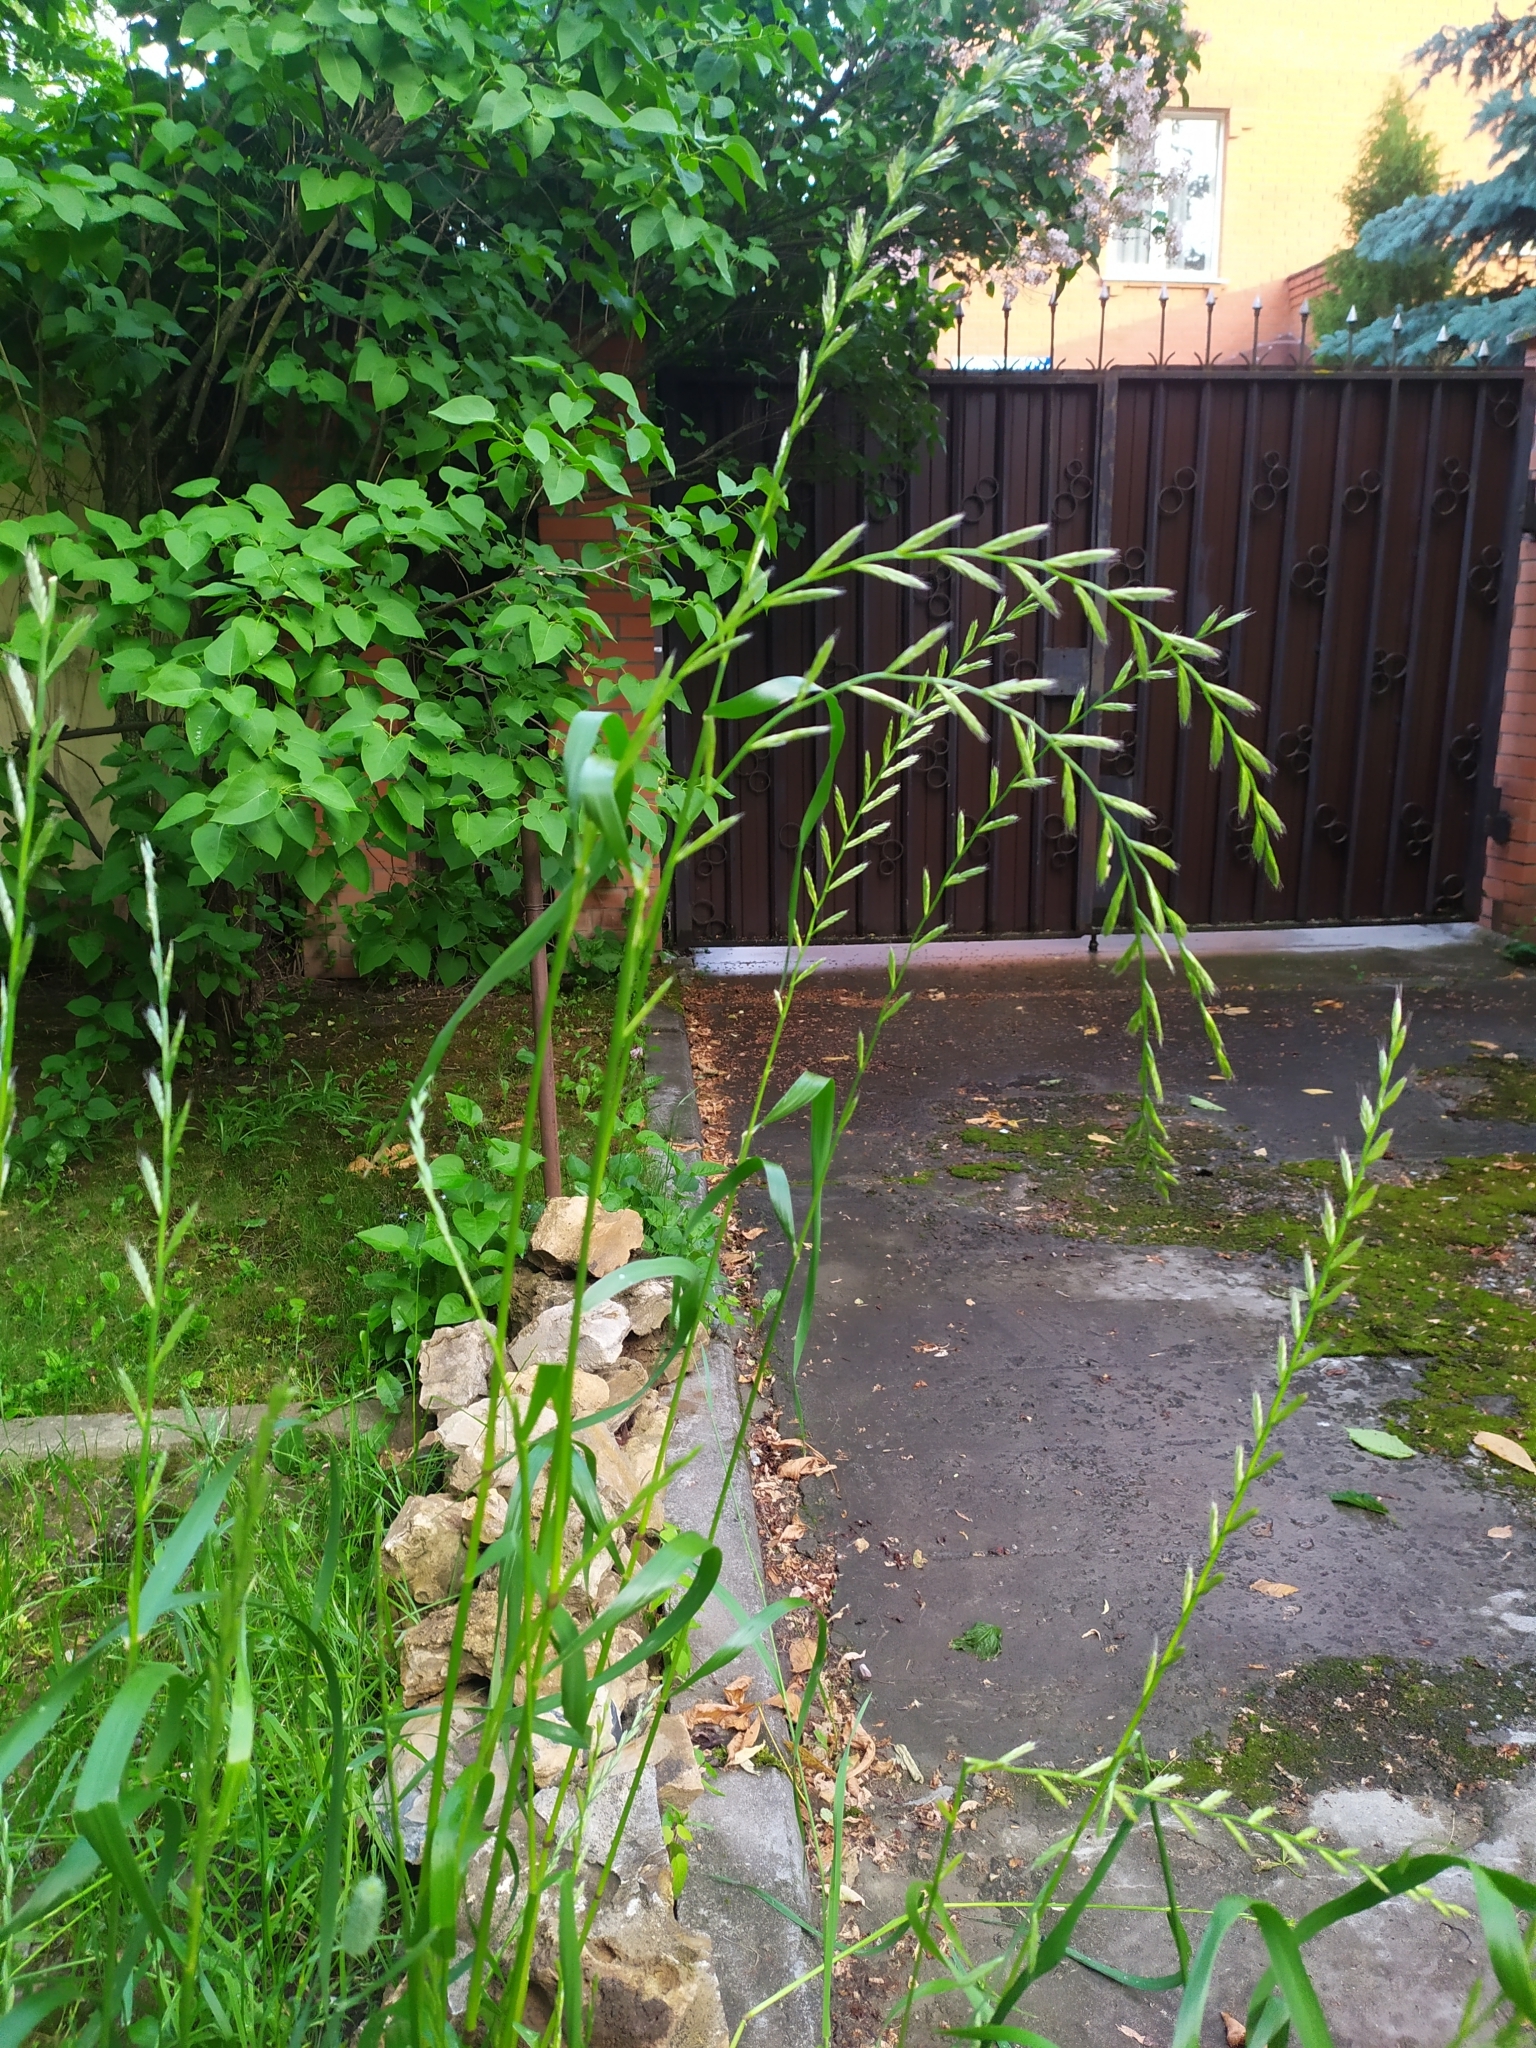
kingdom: Plantae
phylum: Tracheophyta
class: Liliopsida
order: Poales
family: Poaceae
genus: Lolium
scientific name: Lolium multiflorum
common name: Annual ryegrass
